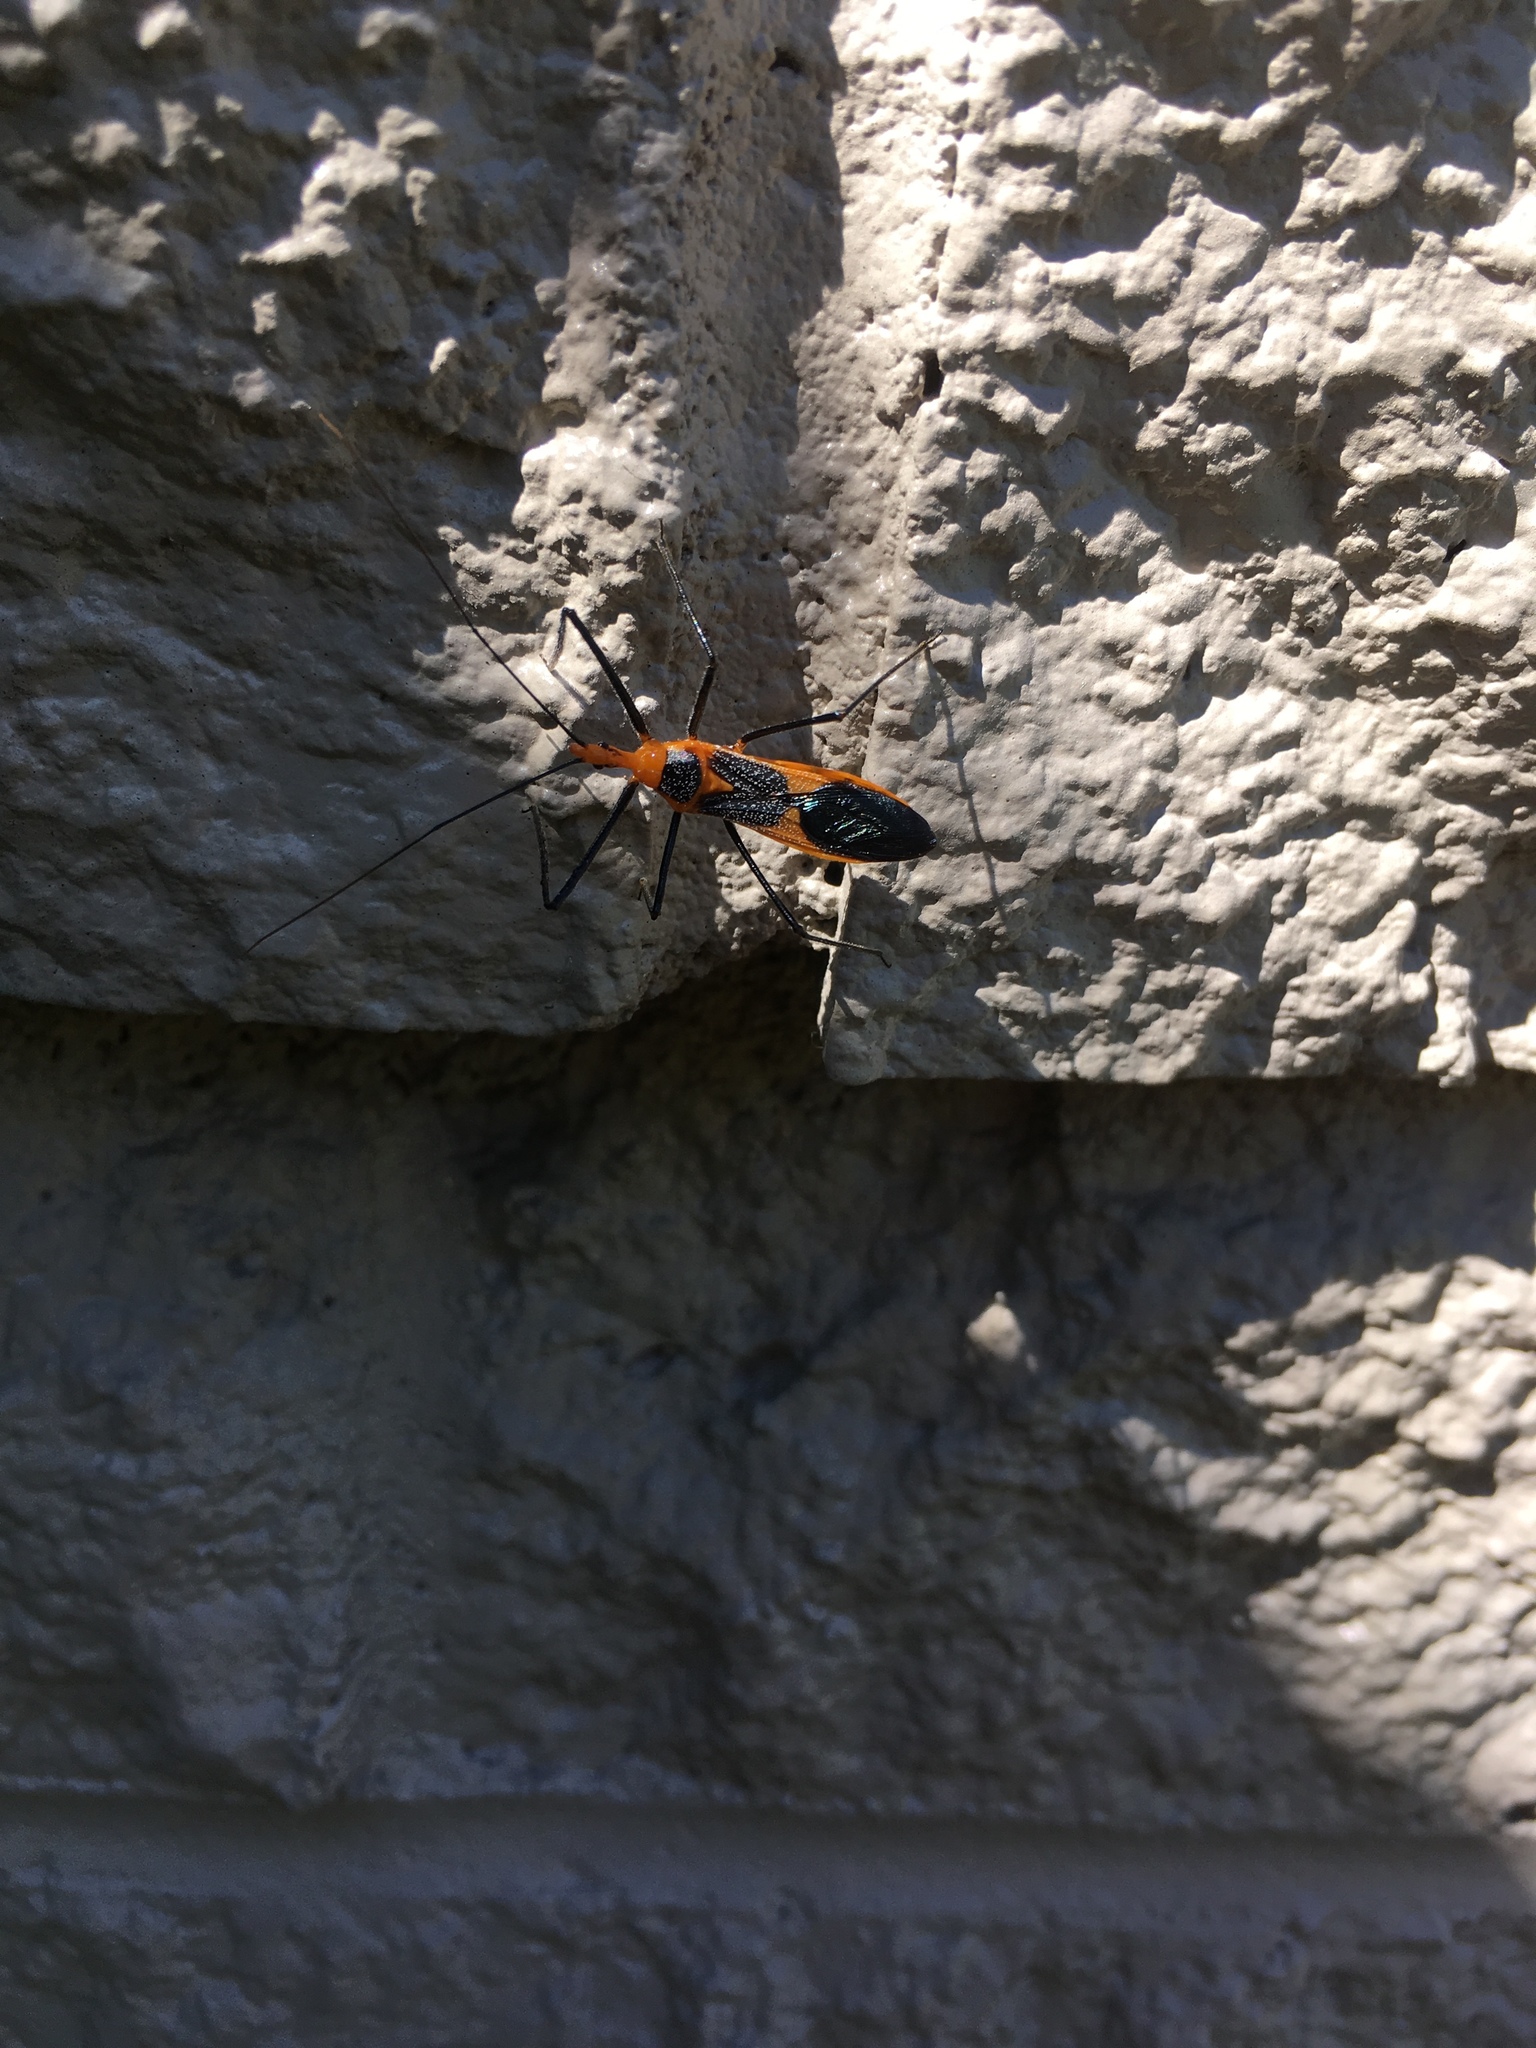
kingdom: Animalia
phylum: Arthropoda
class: Insecta
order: Hemiptera
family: Reduviidae
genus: Zelus
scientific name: Zelus longipes
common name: Milkweed assassin bug
